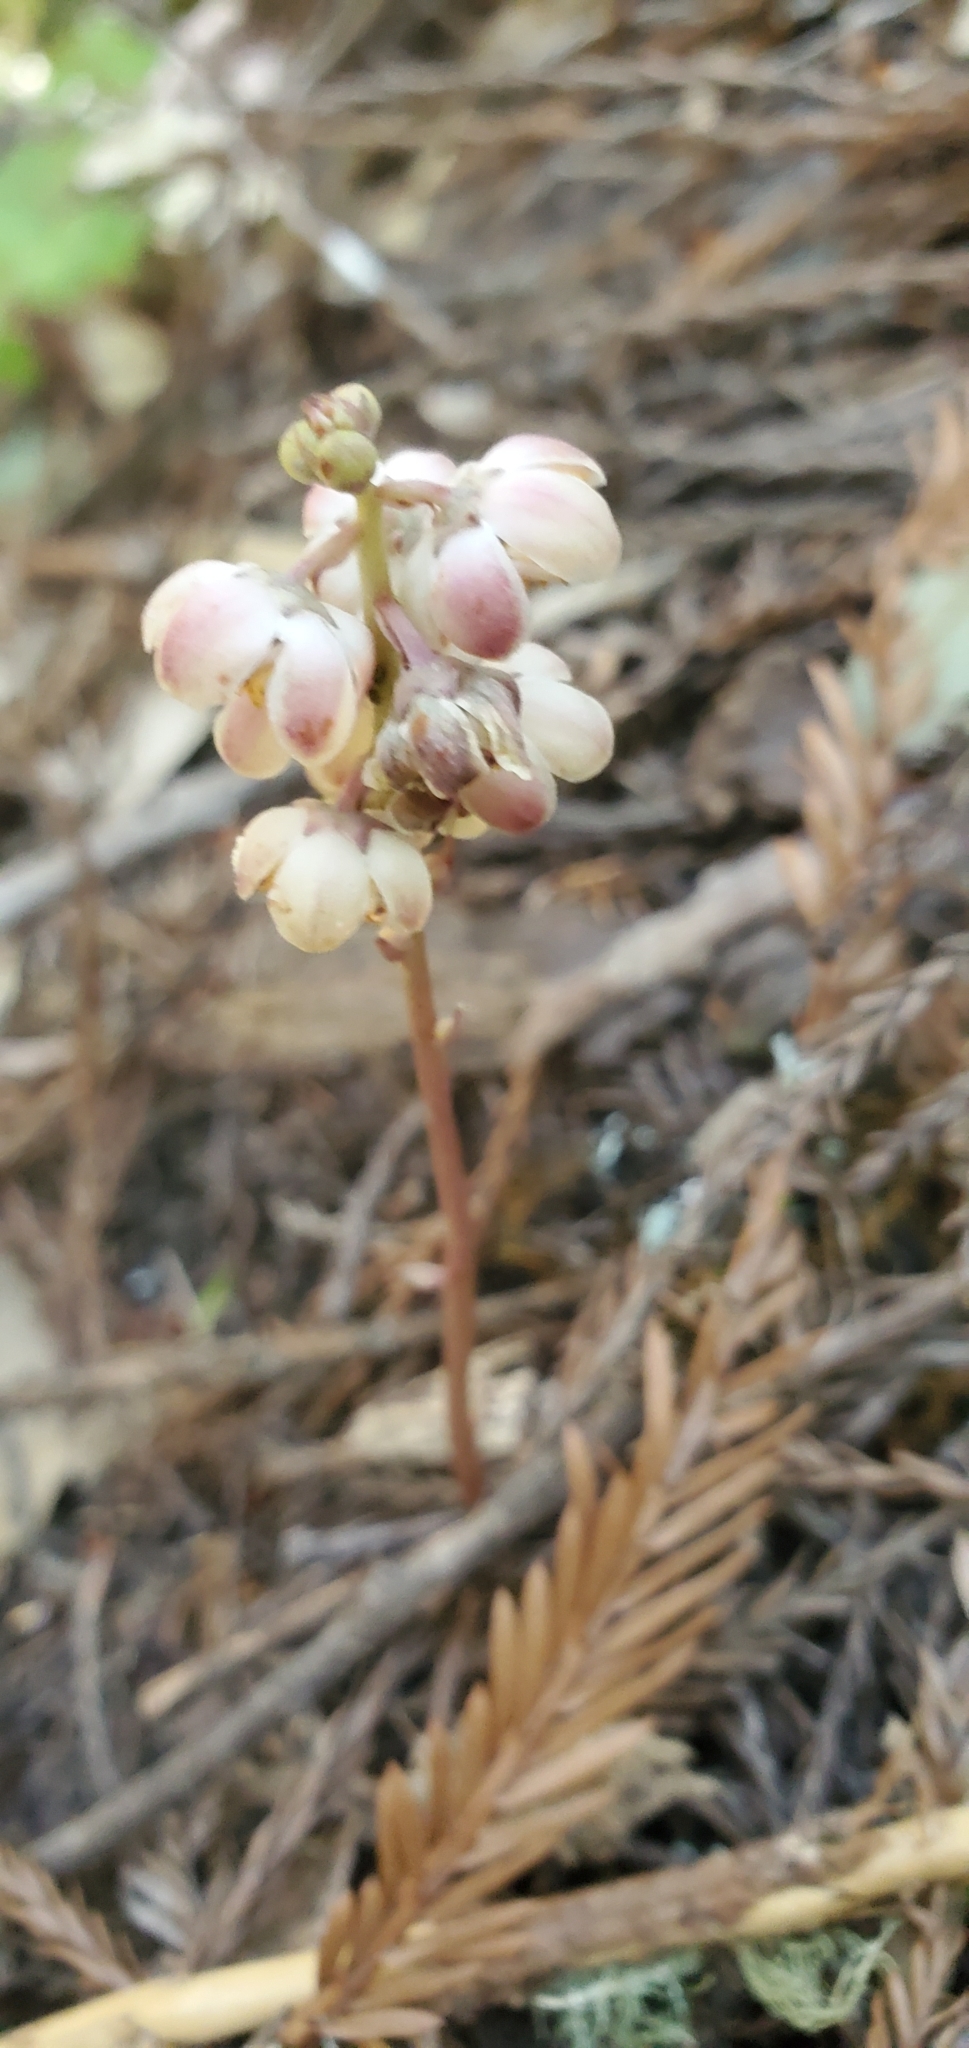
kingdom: Plantae
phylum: Tracheophyta
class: Magnoliopsida
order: Ericales
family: Ericaceae
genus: Pyrola
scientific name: Pyrola aphylla
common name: Leafless wintergreen
